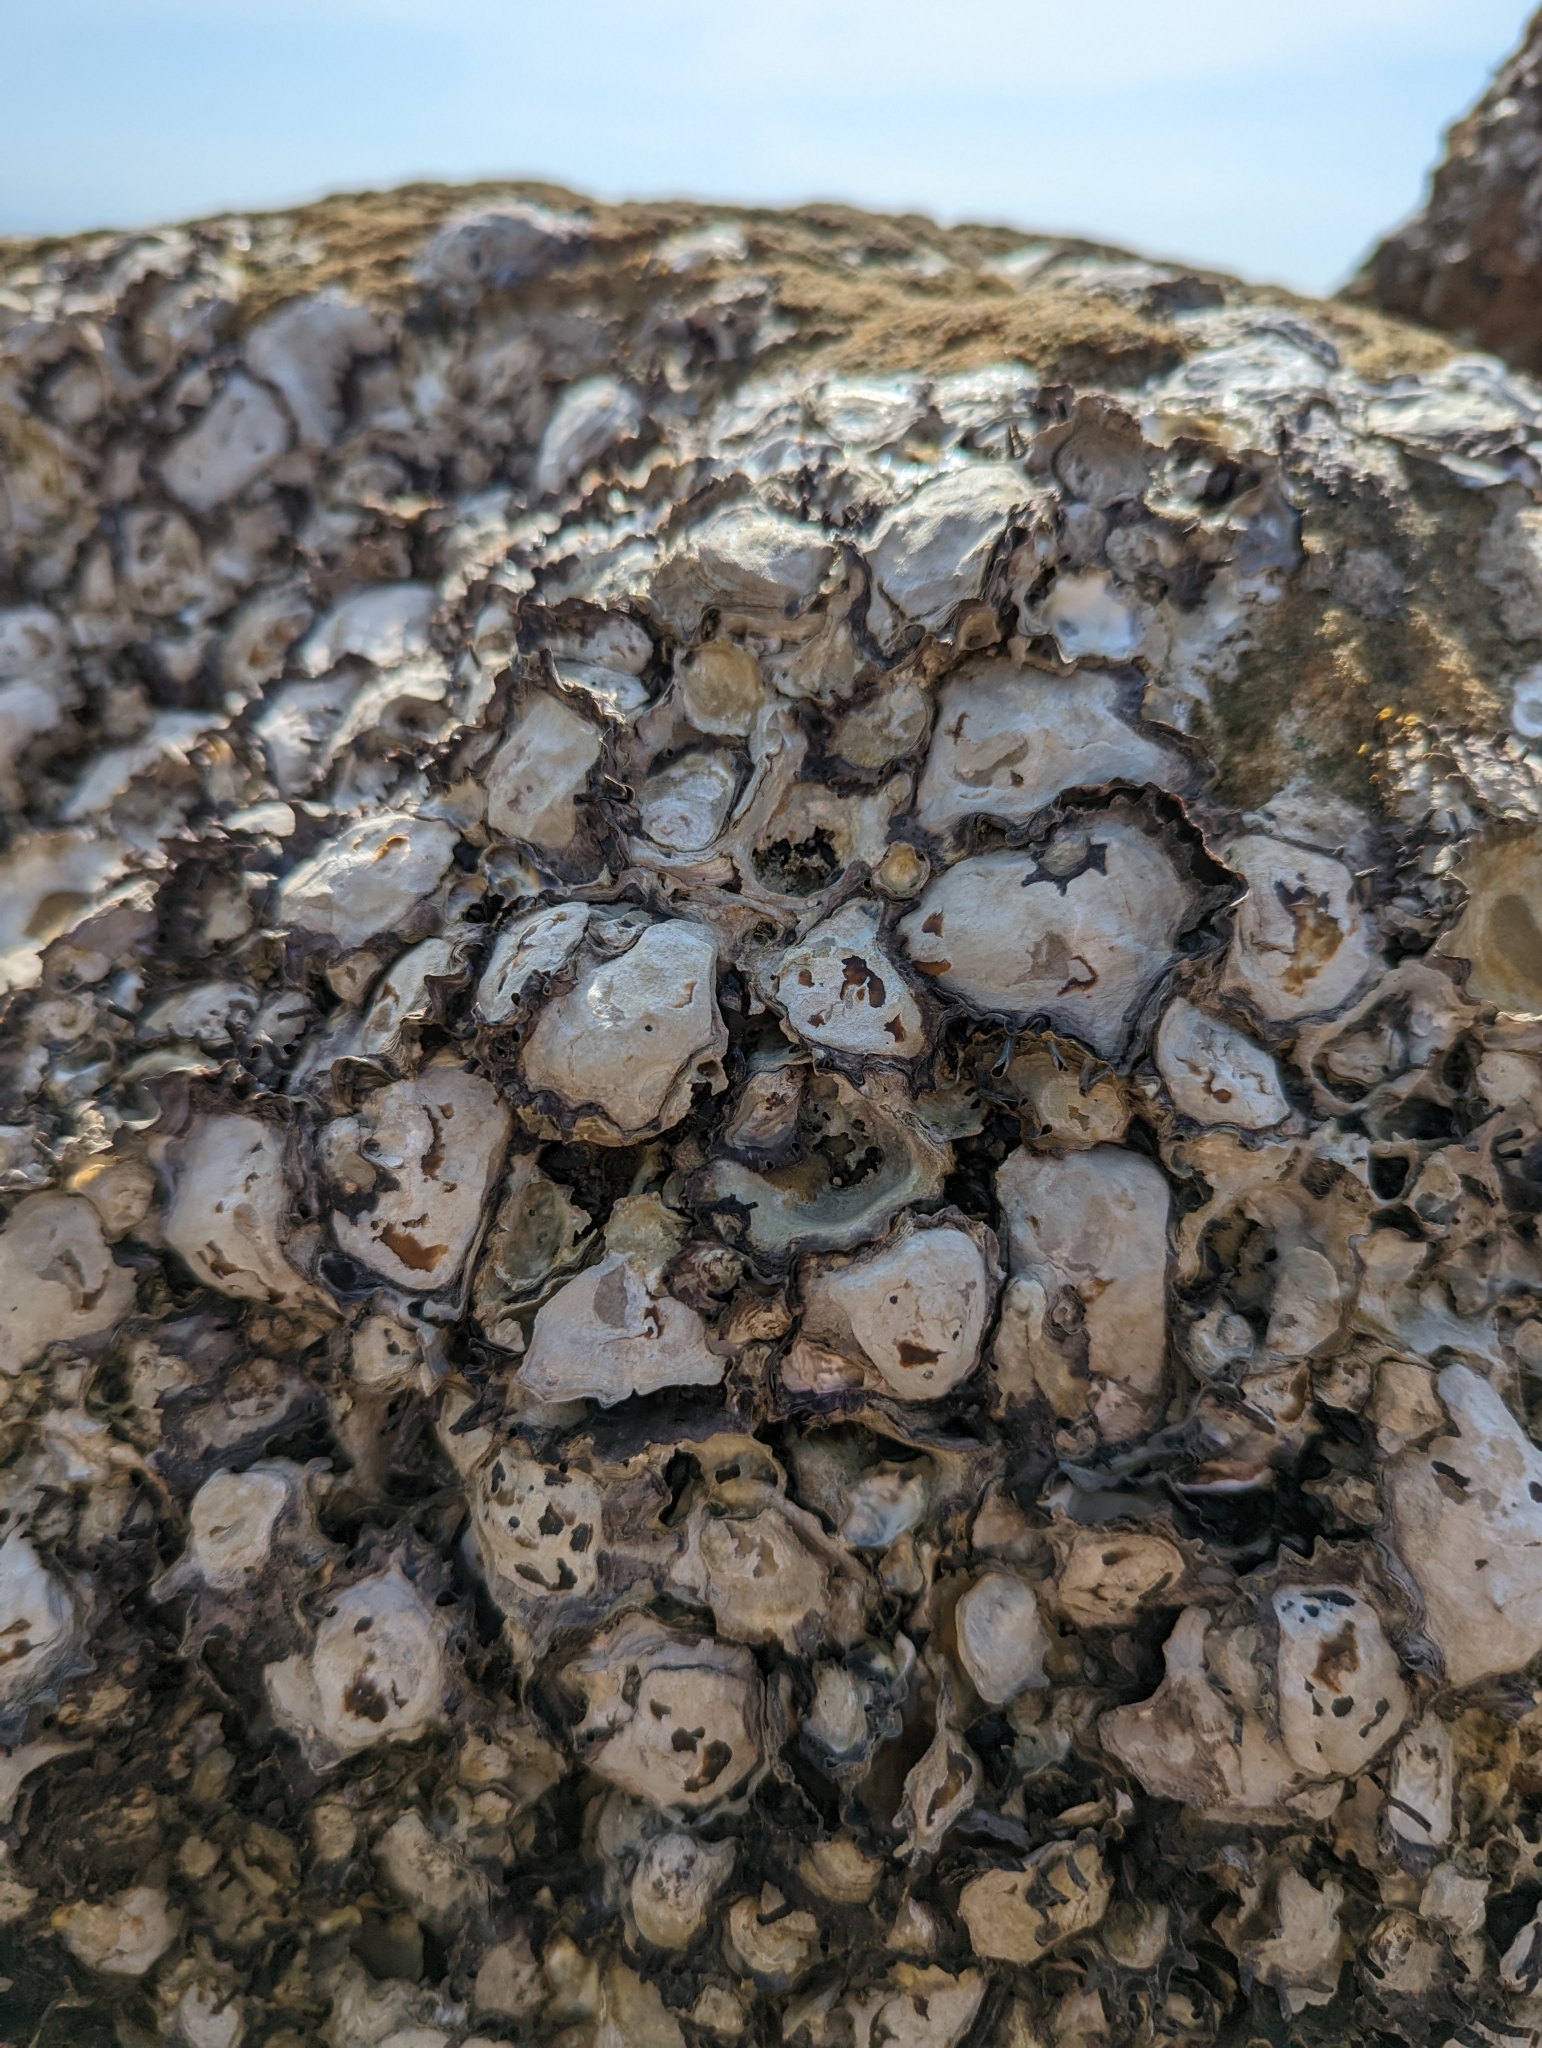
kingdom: Animalia
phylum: Mollusca
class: Bivalvia
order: Ostreida
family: Ostreidae
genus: Saccostrea
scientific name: Saccostrea cuccullata
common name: Natal rock oyster
